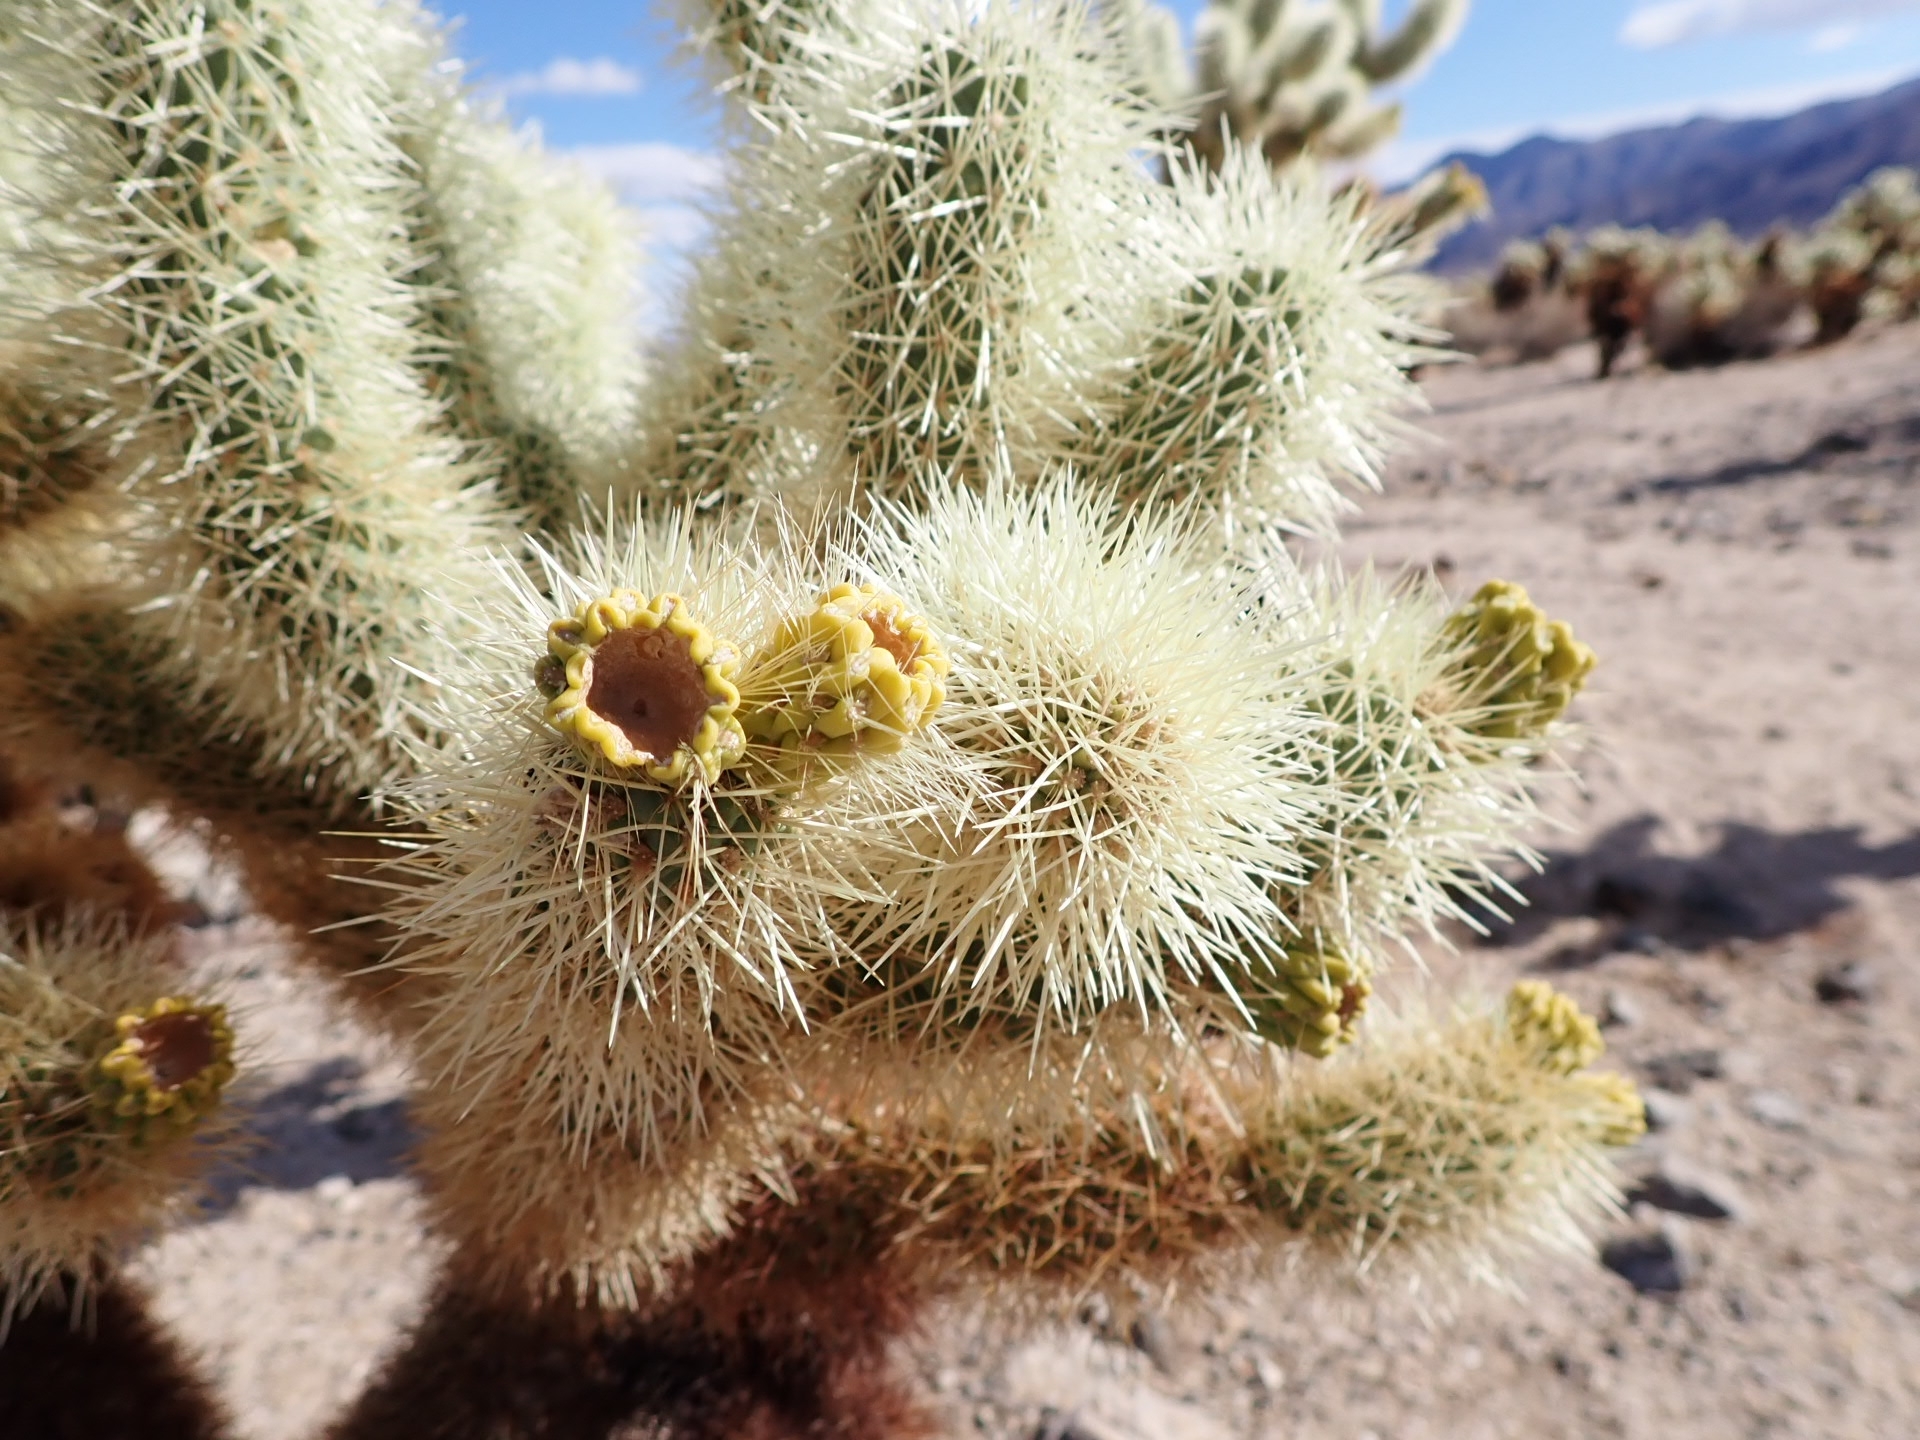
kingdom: Plantae
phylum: Tracheophyta
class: Magnoliopsida
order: Caryophyllales
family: Cactaceae
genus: Cylindropuntia
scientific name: Cylindropuntia fosbergii
